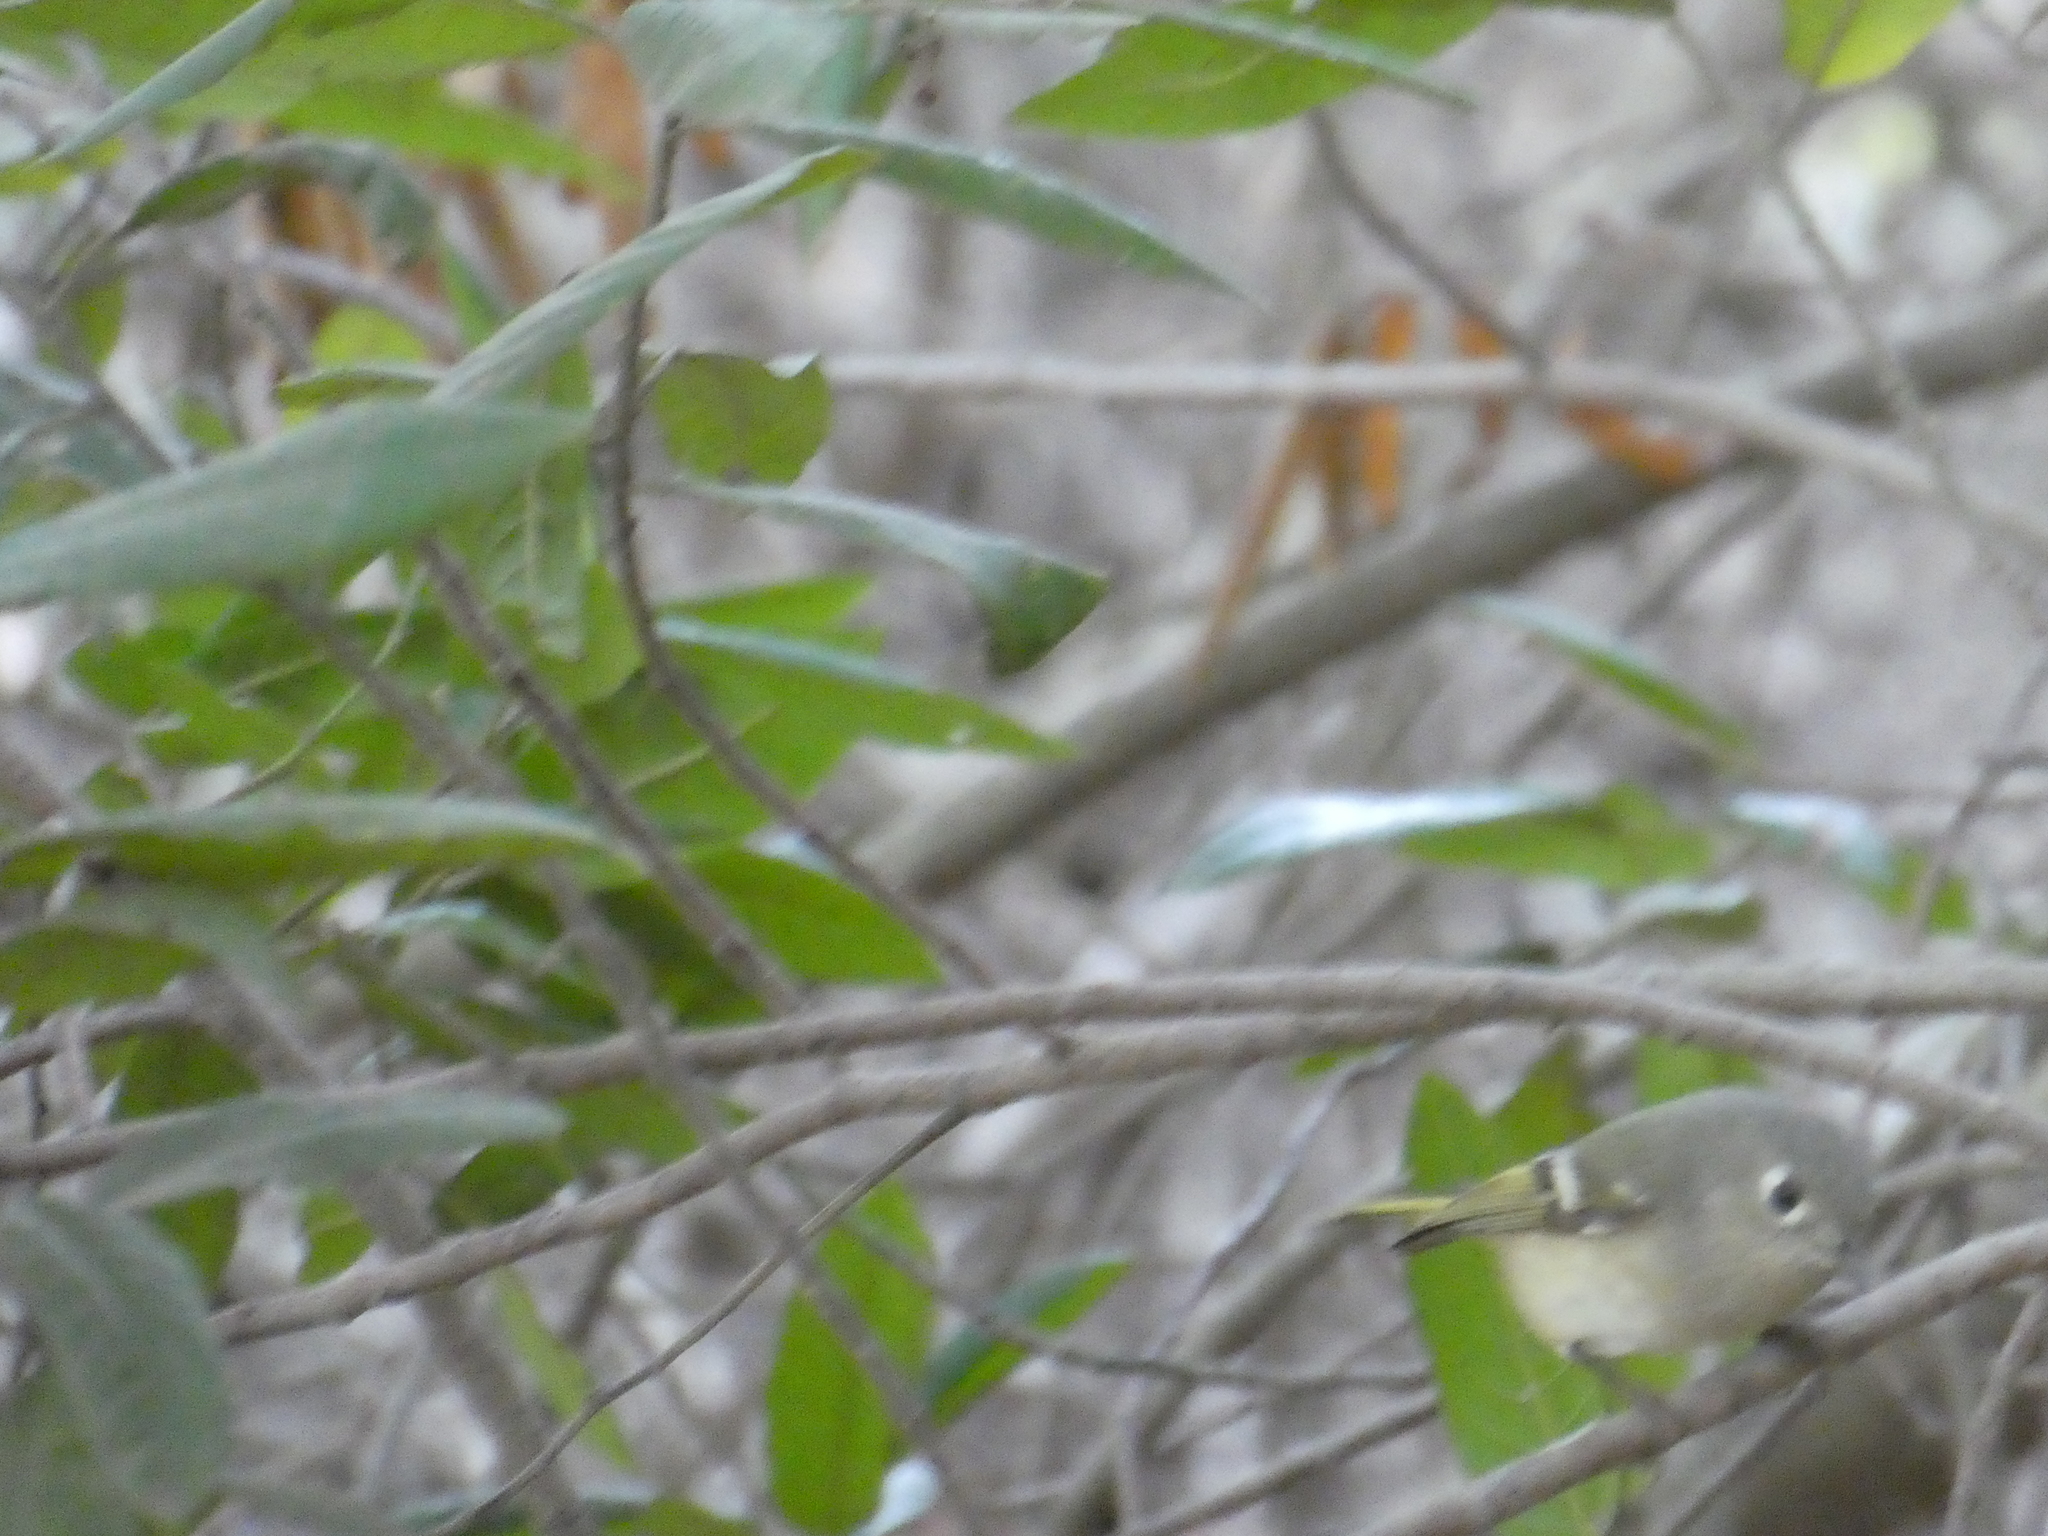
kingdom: Animalia
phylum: Chordata
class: Aves
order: Passeriformes
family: Regulidae
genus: Regulus
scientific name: Regulus calendula
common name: Ruby-crowned kinglet
